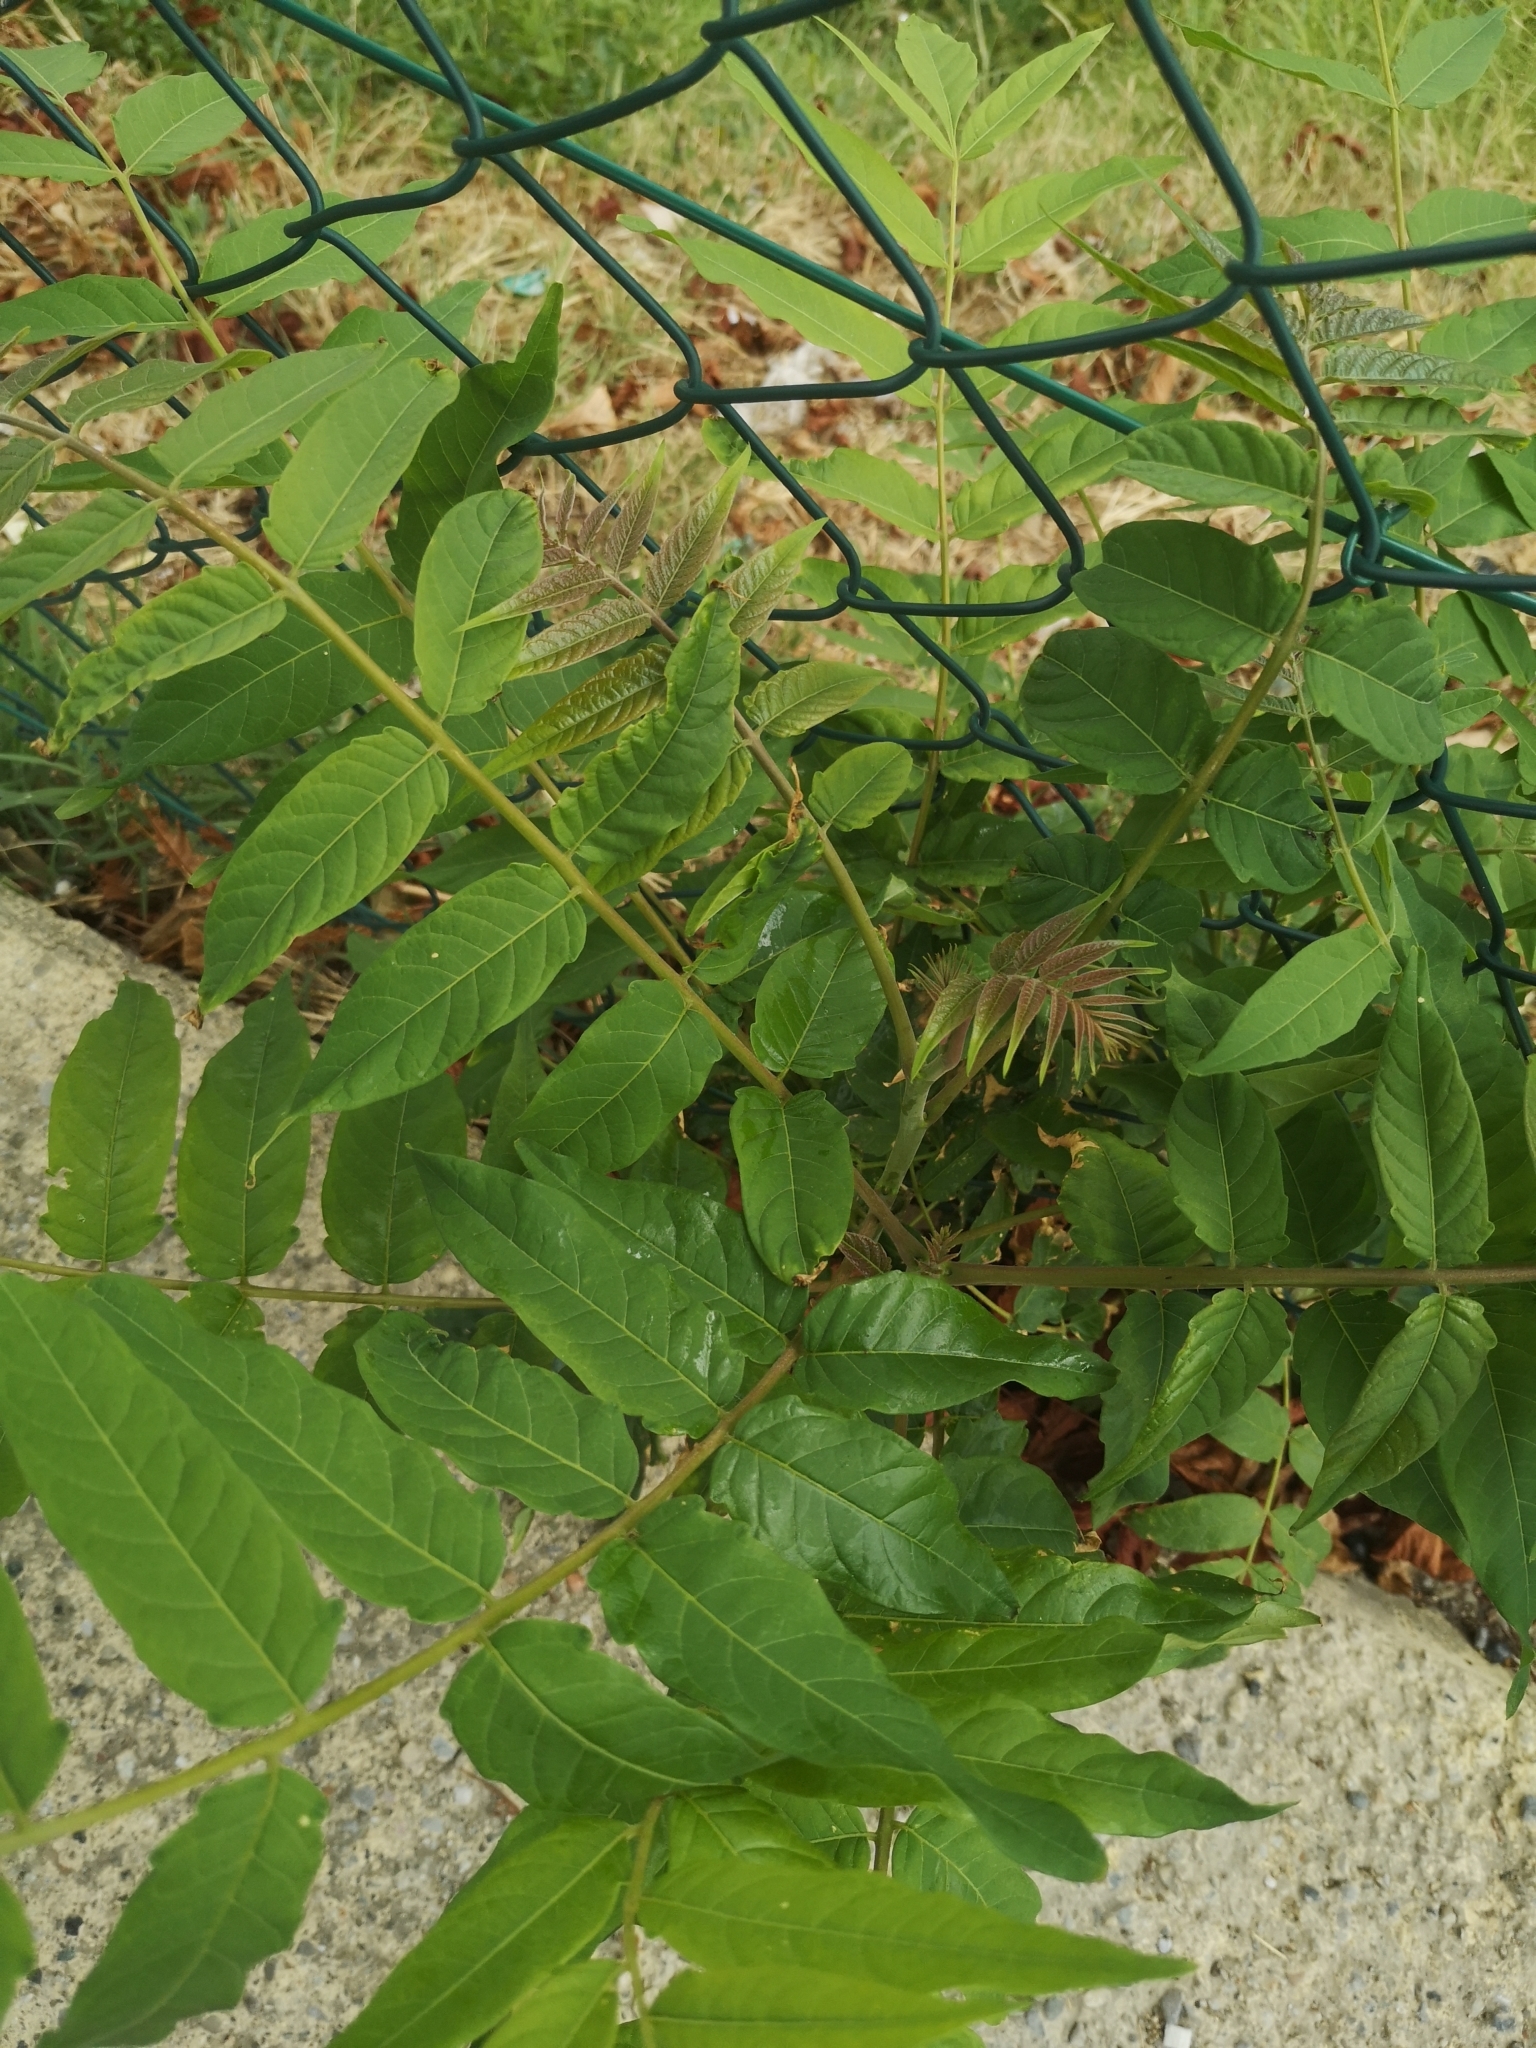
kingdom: Plantae
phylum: Tracheophyta
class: Magnoliopsida
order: Sapindales
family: Simaroubaceae
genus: Ailanthus
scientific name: Ailanthus altissima
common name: Tree-of-heaven
